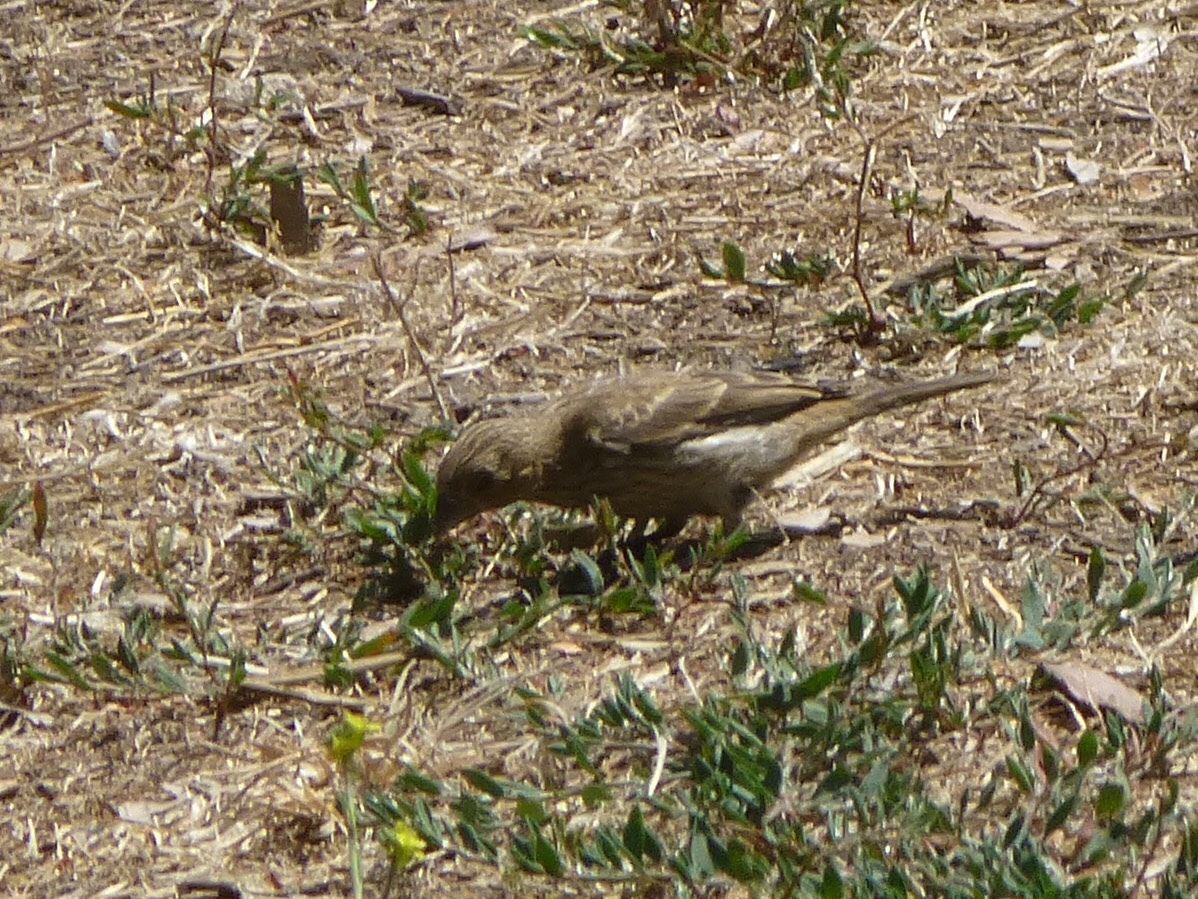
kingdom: Animalia
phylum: Chordata
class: Aves
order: Passeriformes
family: Fringillidae
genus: Haemorhous
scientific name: Haemorhous mexicanus
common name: House finch
